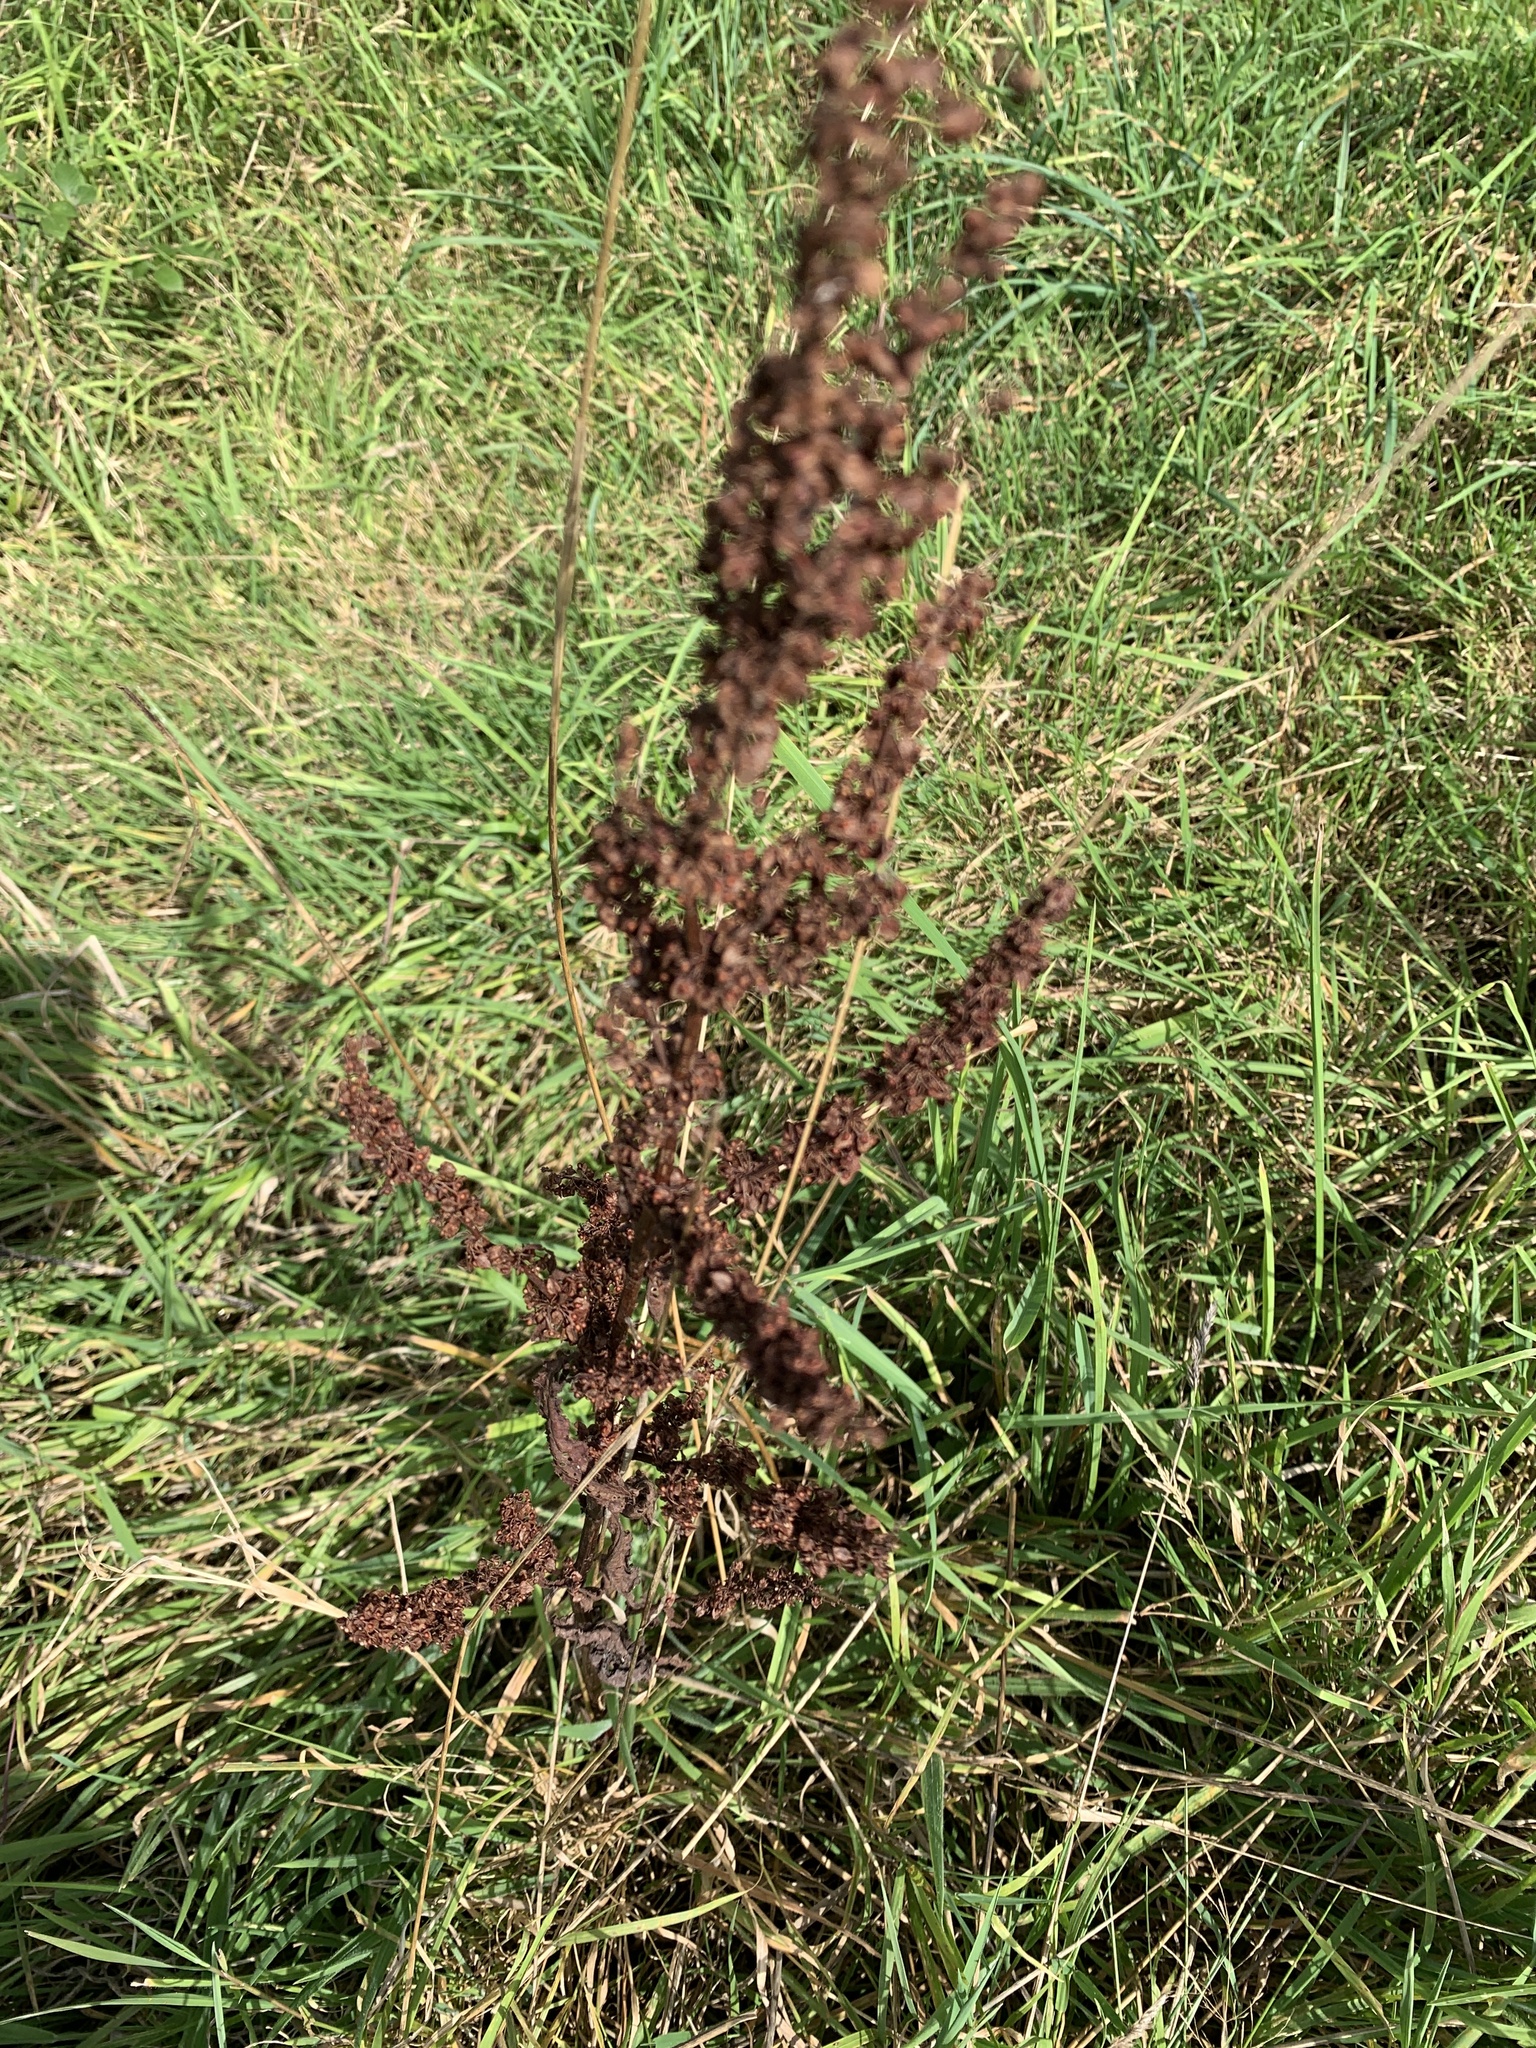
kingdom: Plantae
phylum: Tracheophyta
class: Magnoliopsida
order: Caryophyllales
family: Polygonaceae
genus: Rumex
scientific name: Rumex crispus
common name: Curled dock
